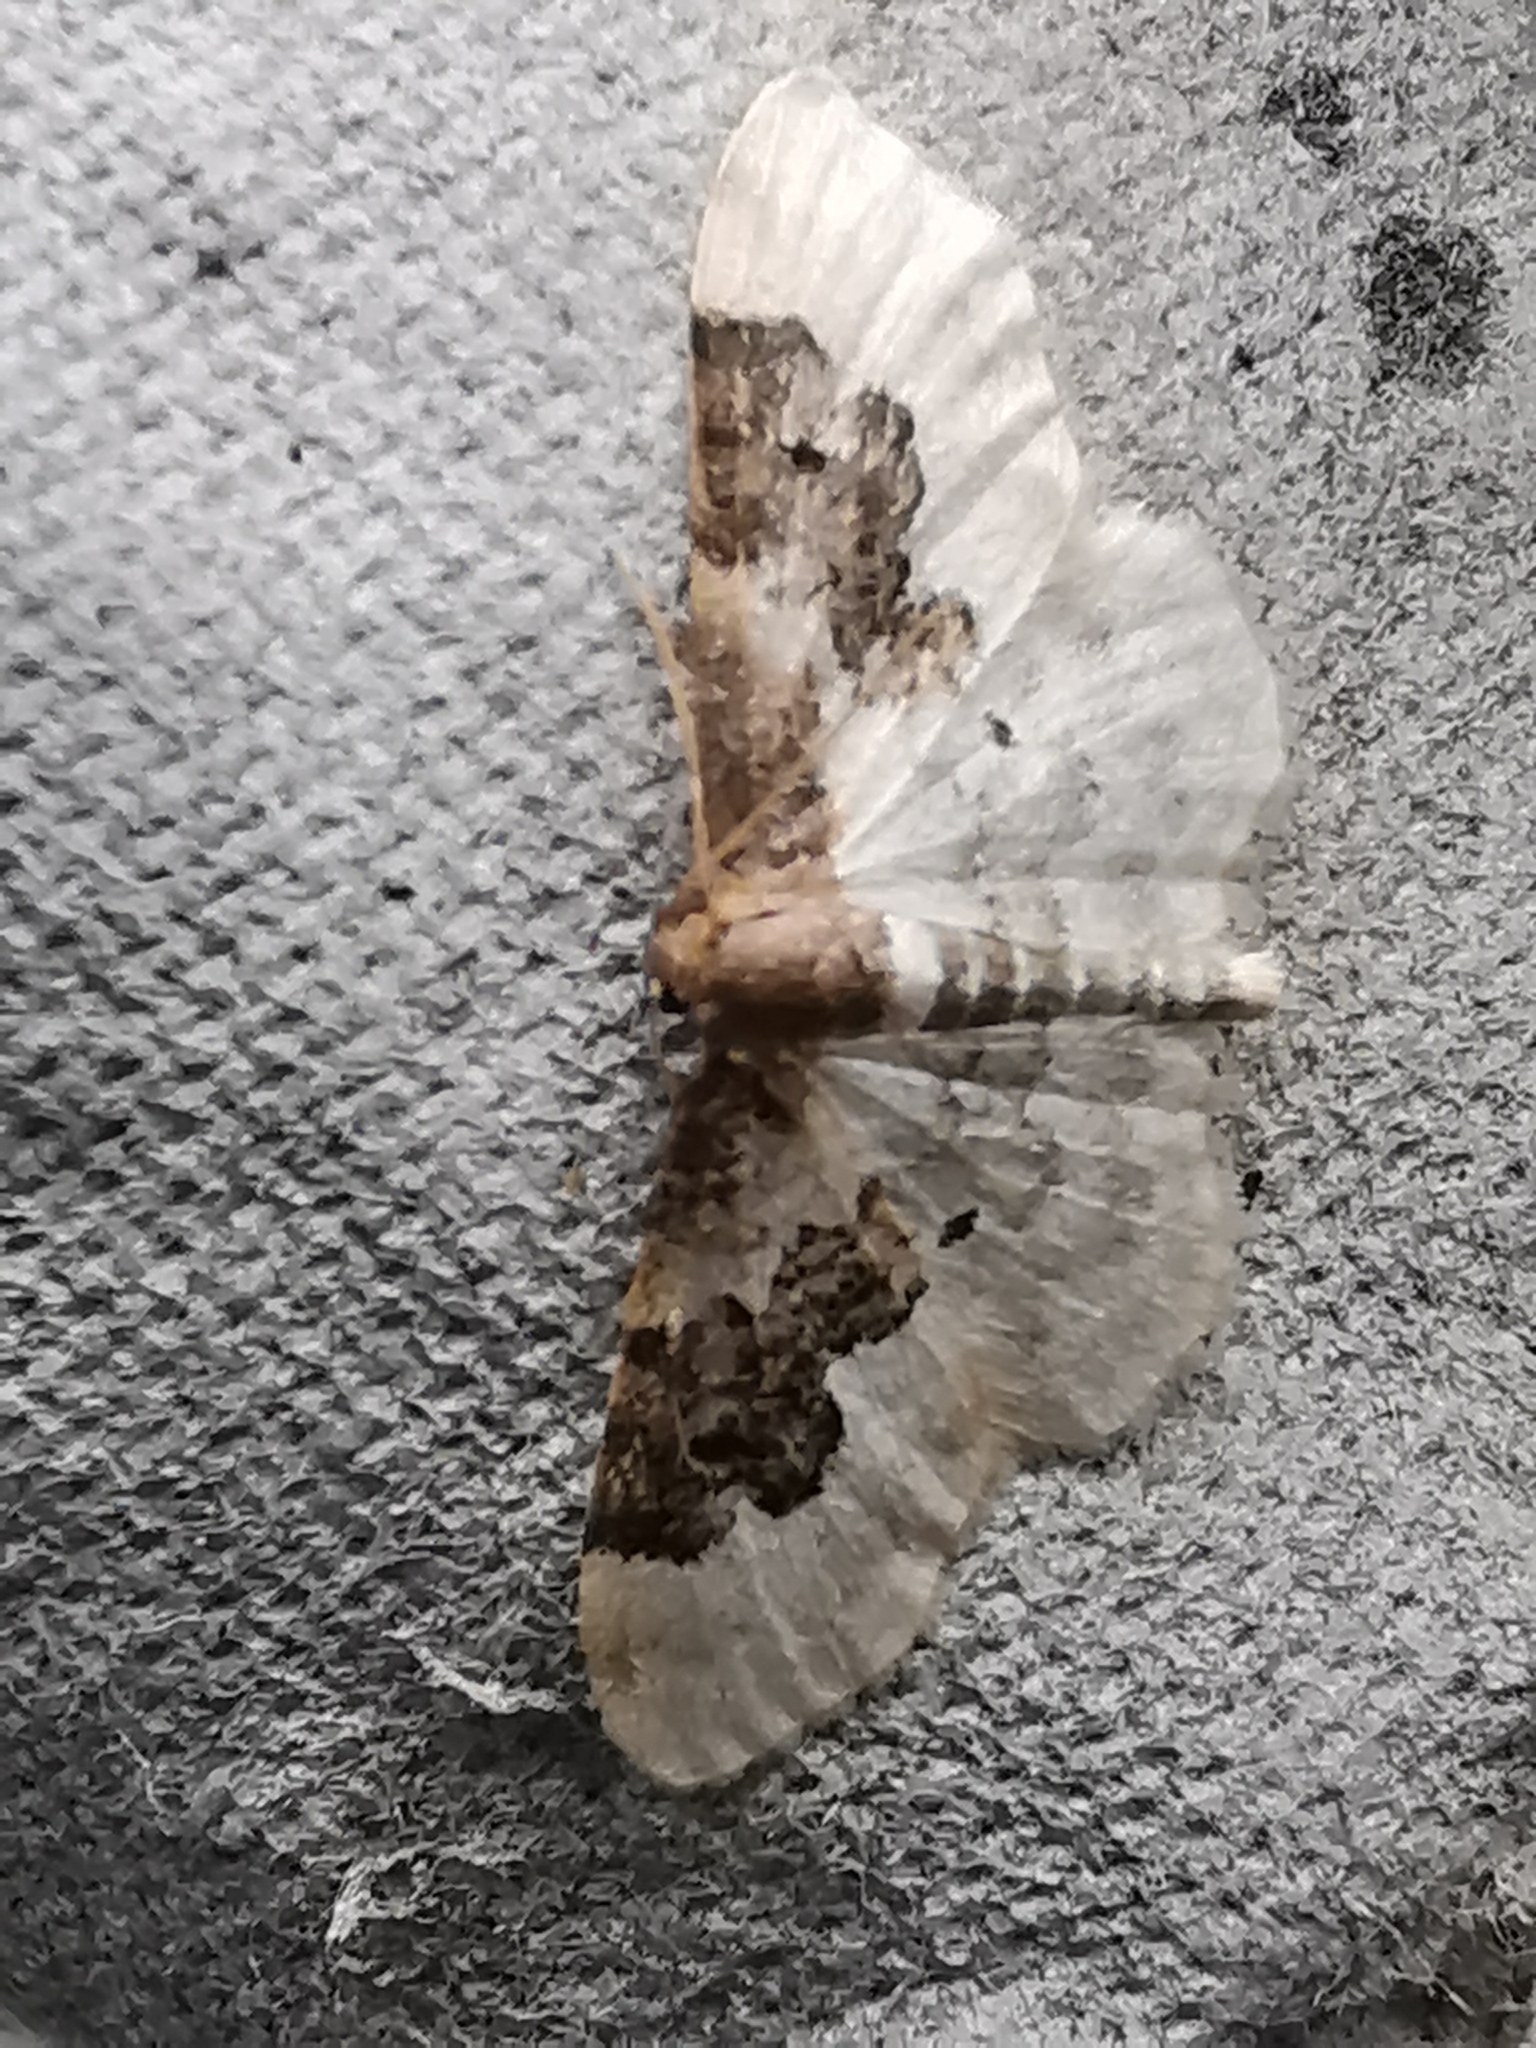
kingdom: Animalia
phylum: Arthropoda
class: Insecta
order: Lepidoptera
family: Geometridae
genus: Idaea
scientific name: Idaea rusticata
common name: Least carpet
